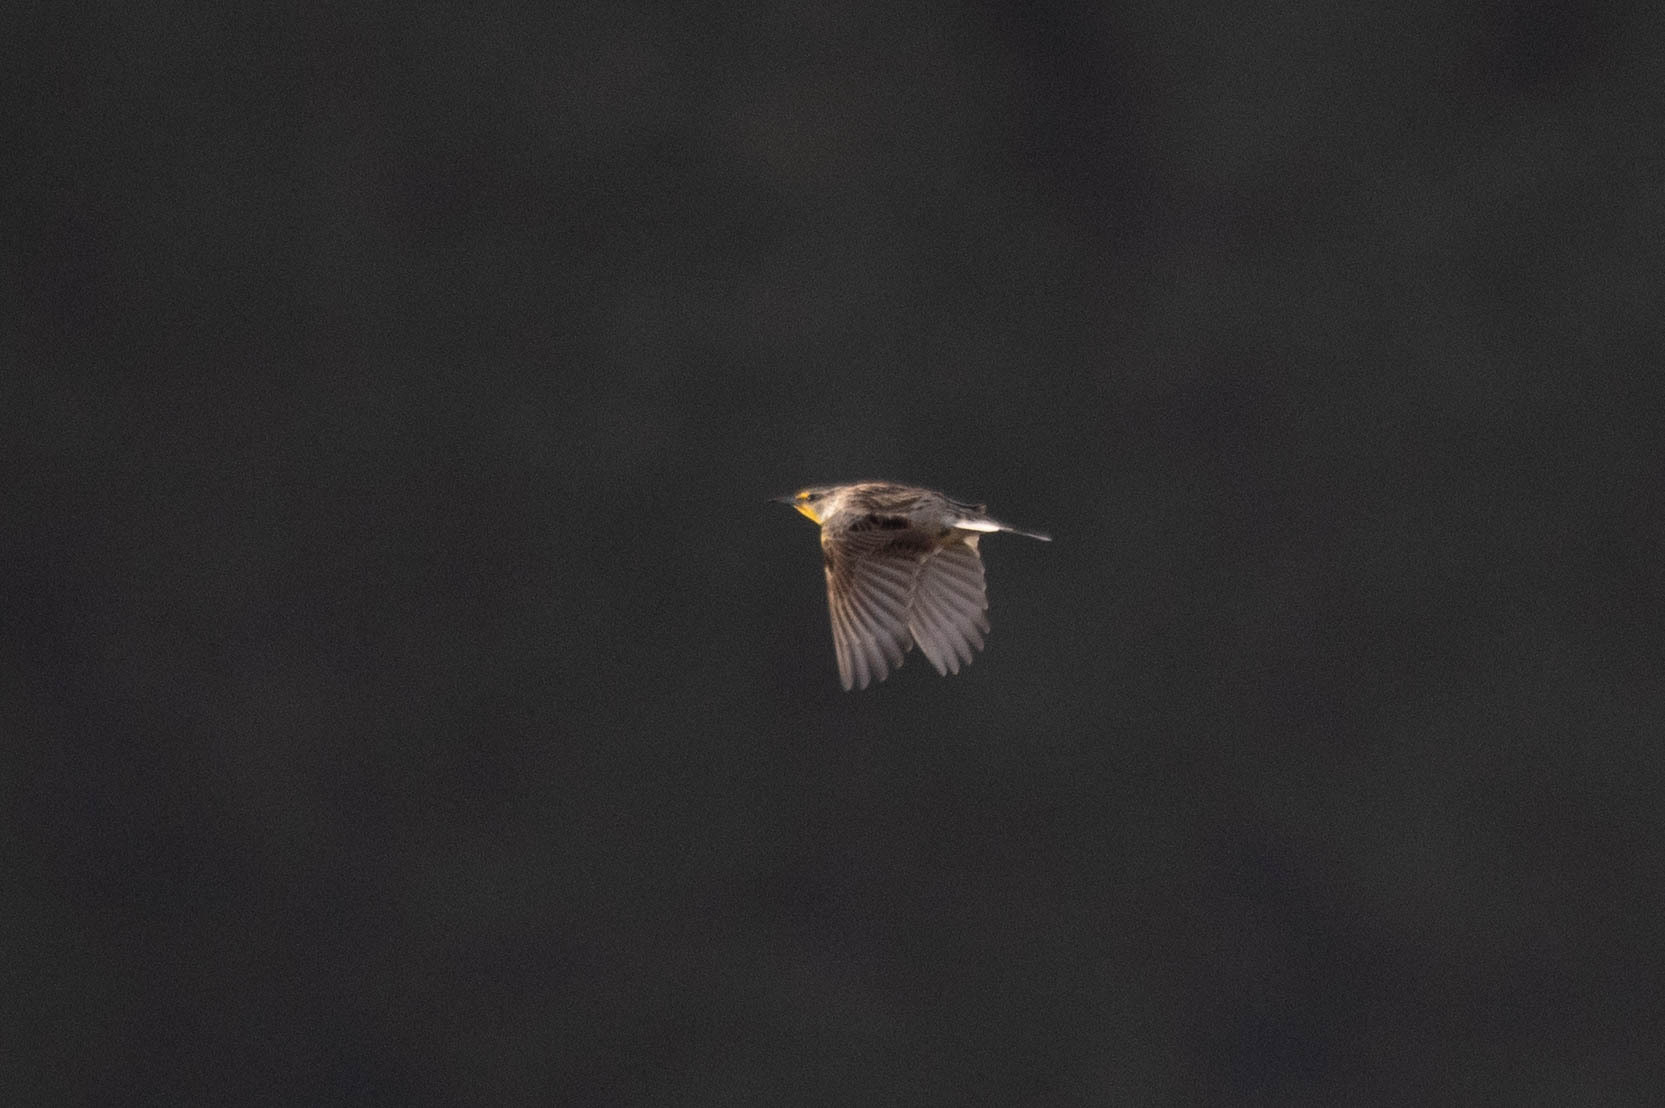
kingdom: Animalia
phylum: Chordata
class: Aves
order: Passeriformes
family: Icteridae
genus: Sturnella
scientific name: Sturnella neglecta
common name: Western meadowlark
